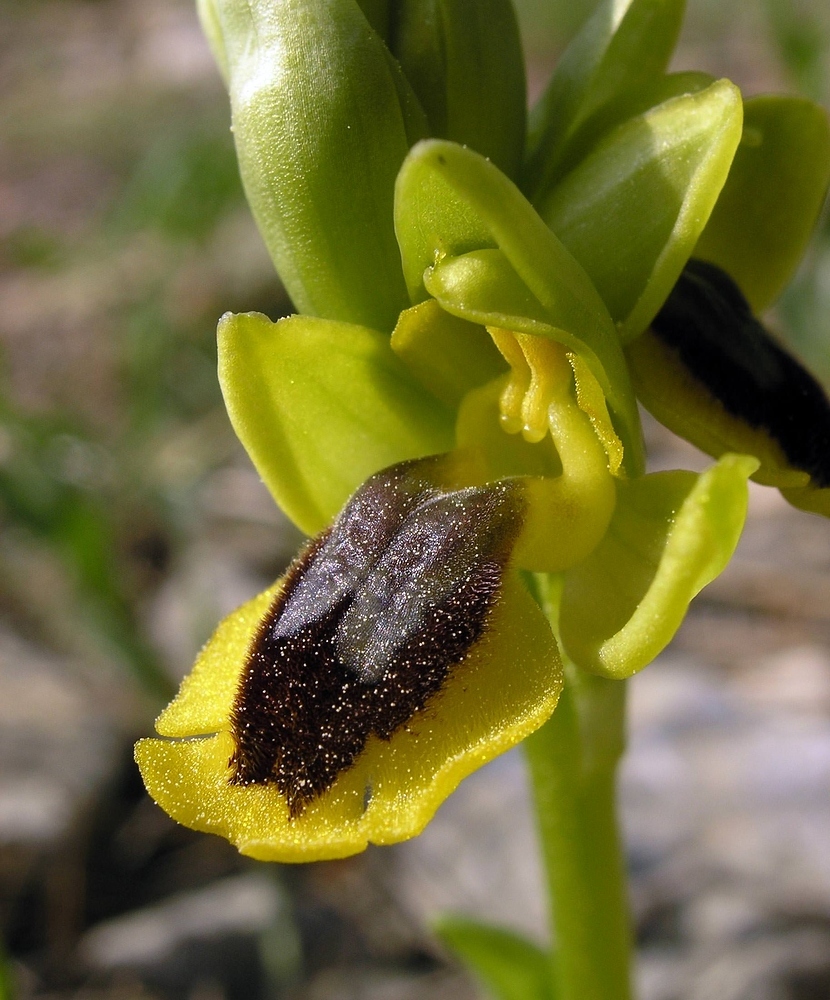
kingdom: Plantae
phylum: Tracheophyta
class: Liliopsida
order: Asparagales
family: Orchidaceae
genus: Ophrys
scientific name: Ophrys lutea
